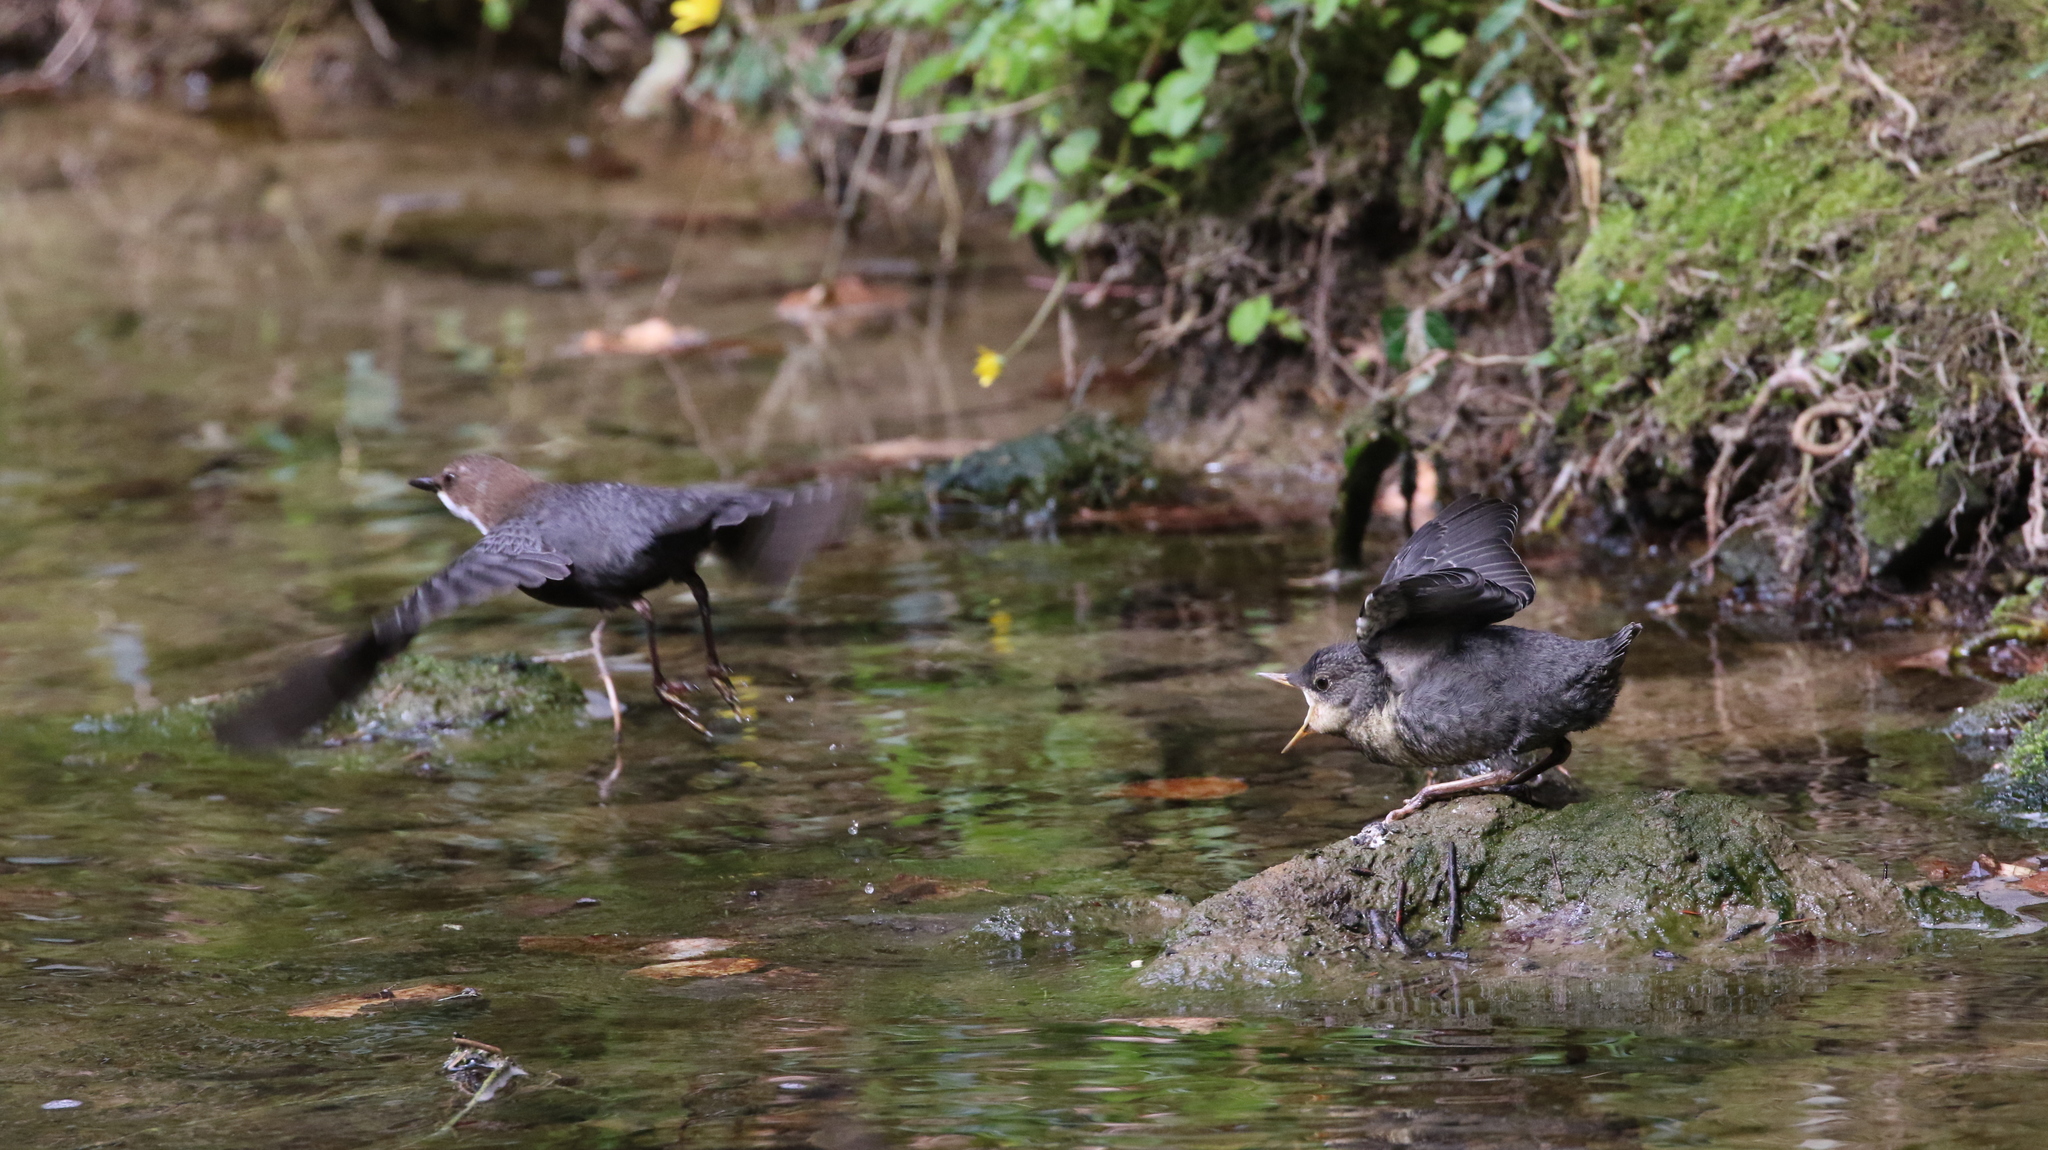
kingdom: Animalia
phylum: Chordata
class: Aves
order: Passeriformes
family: Cinclidae
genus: Cinclus
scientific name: Cinclus cinclus
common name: White-throated dipper
